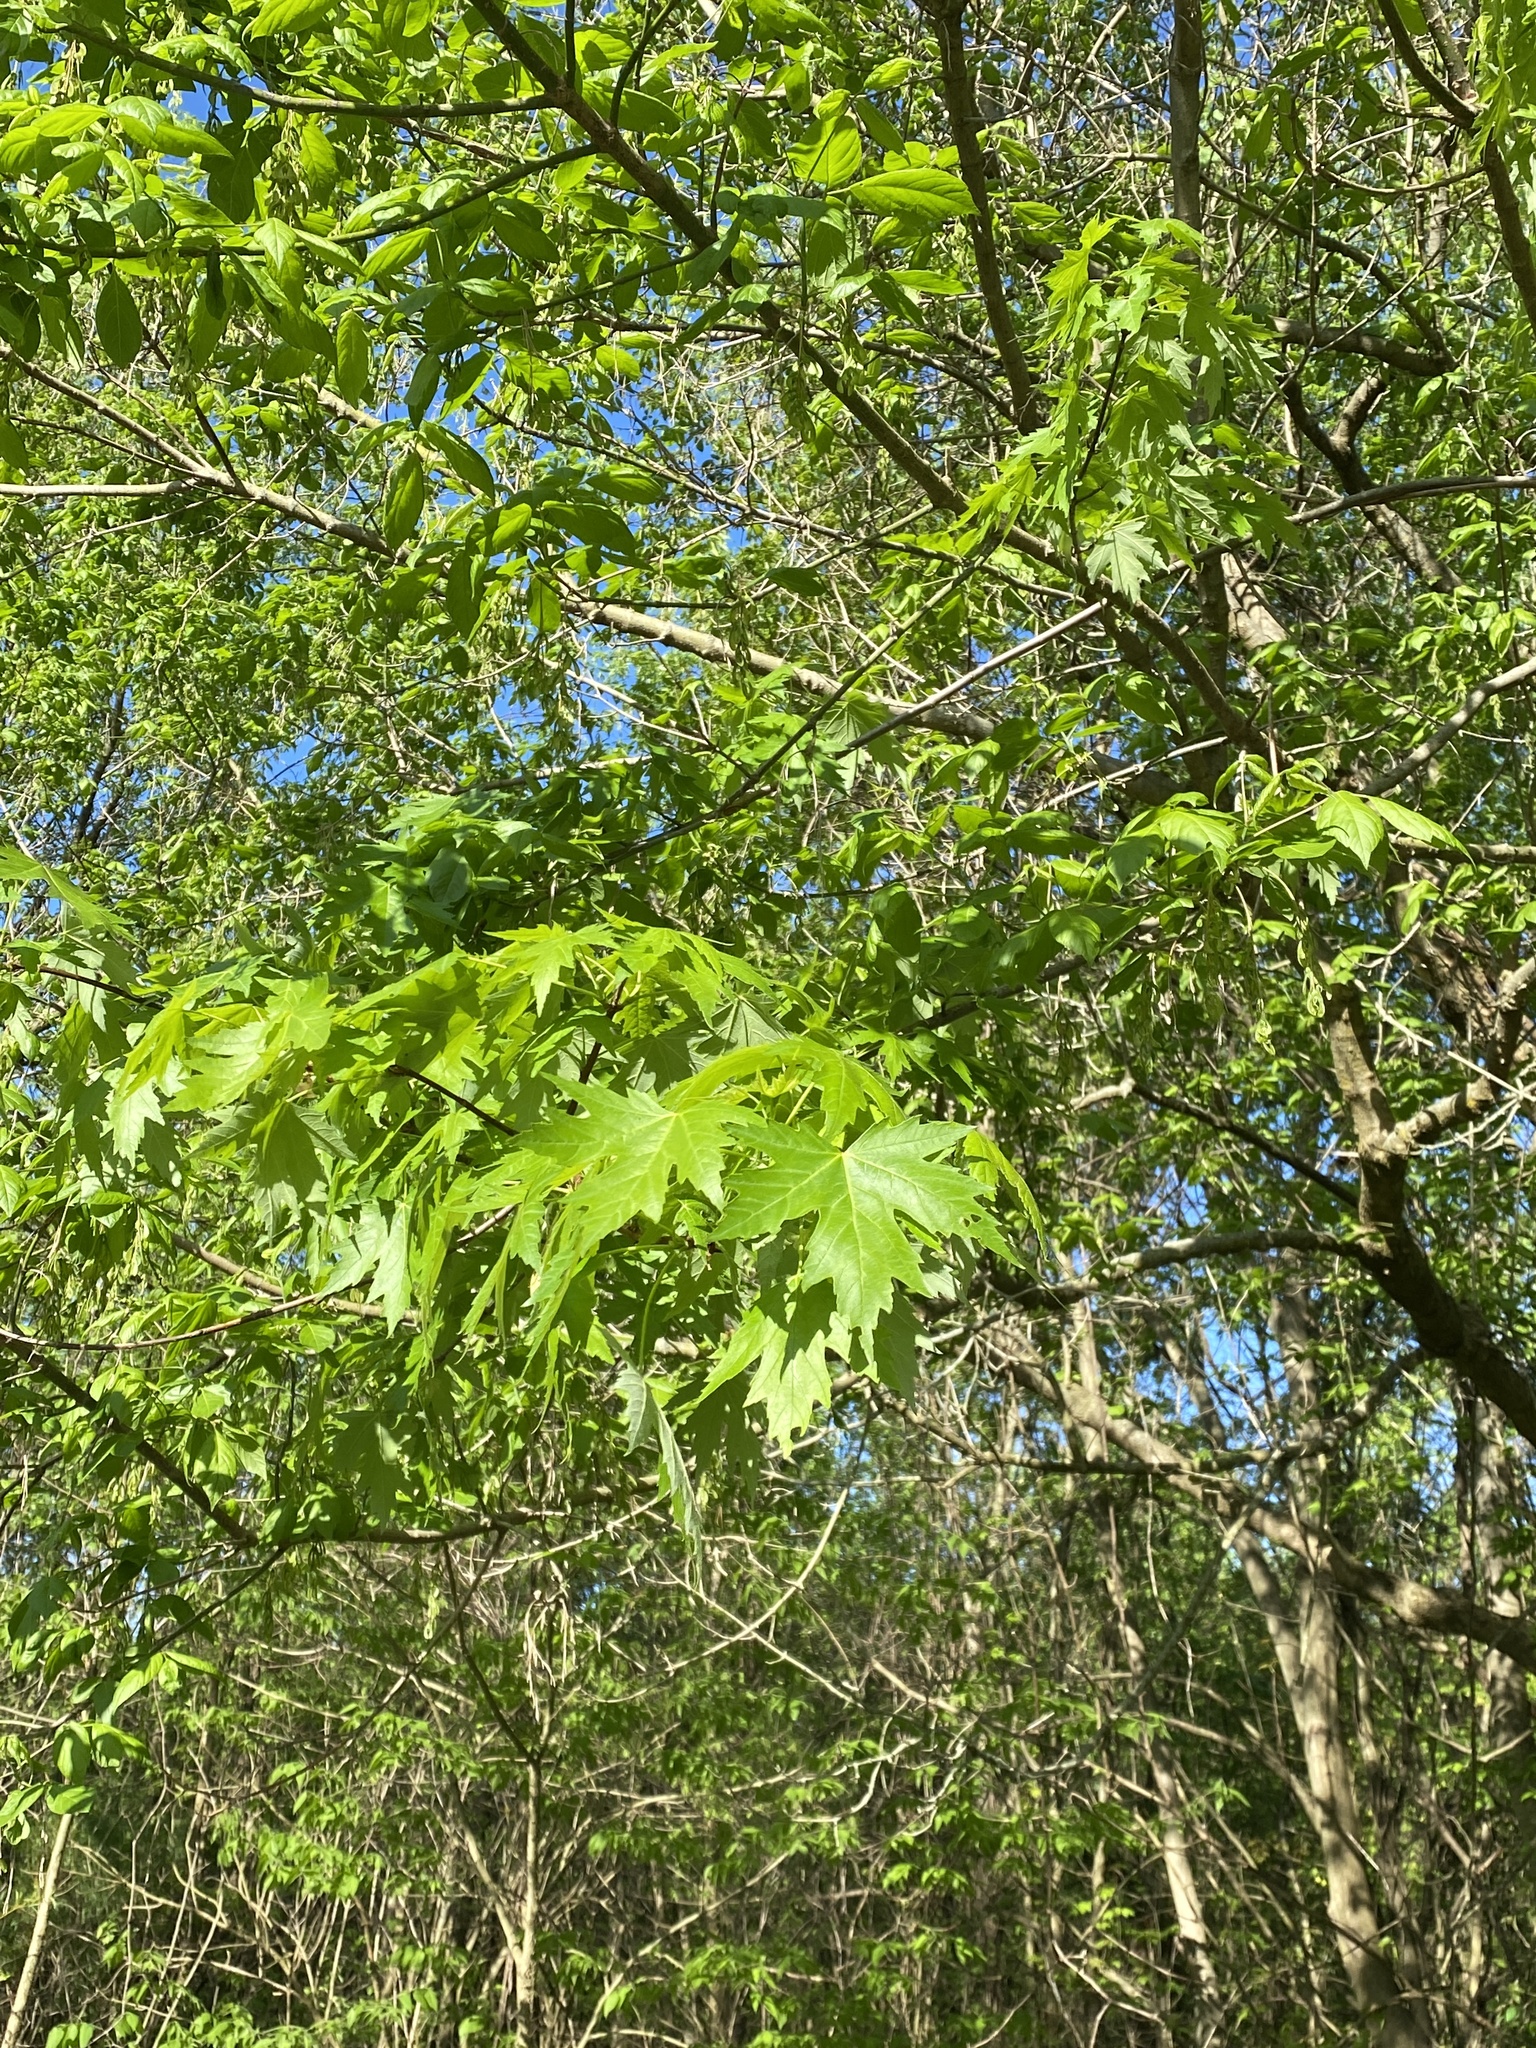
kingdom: Plantae
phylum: Tracheophyta
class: Magnoliopsida
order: Sapindales
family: Sapindaceae
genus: Acer
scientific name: Acer saccharum
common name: Sugar maple
